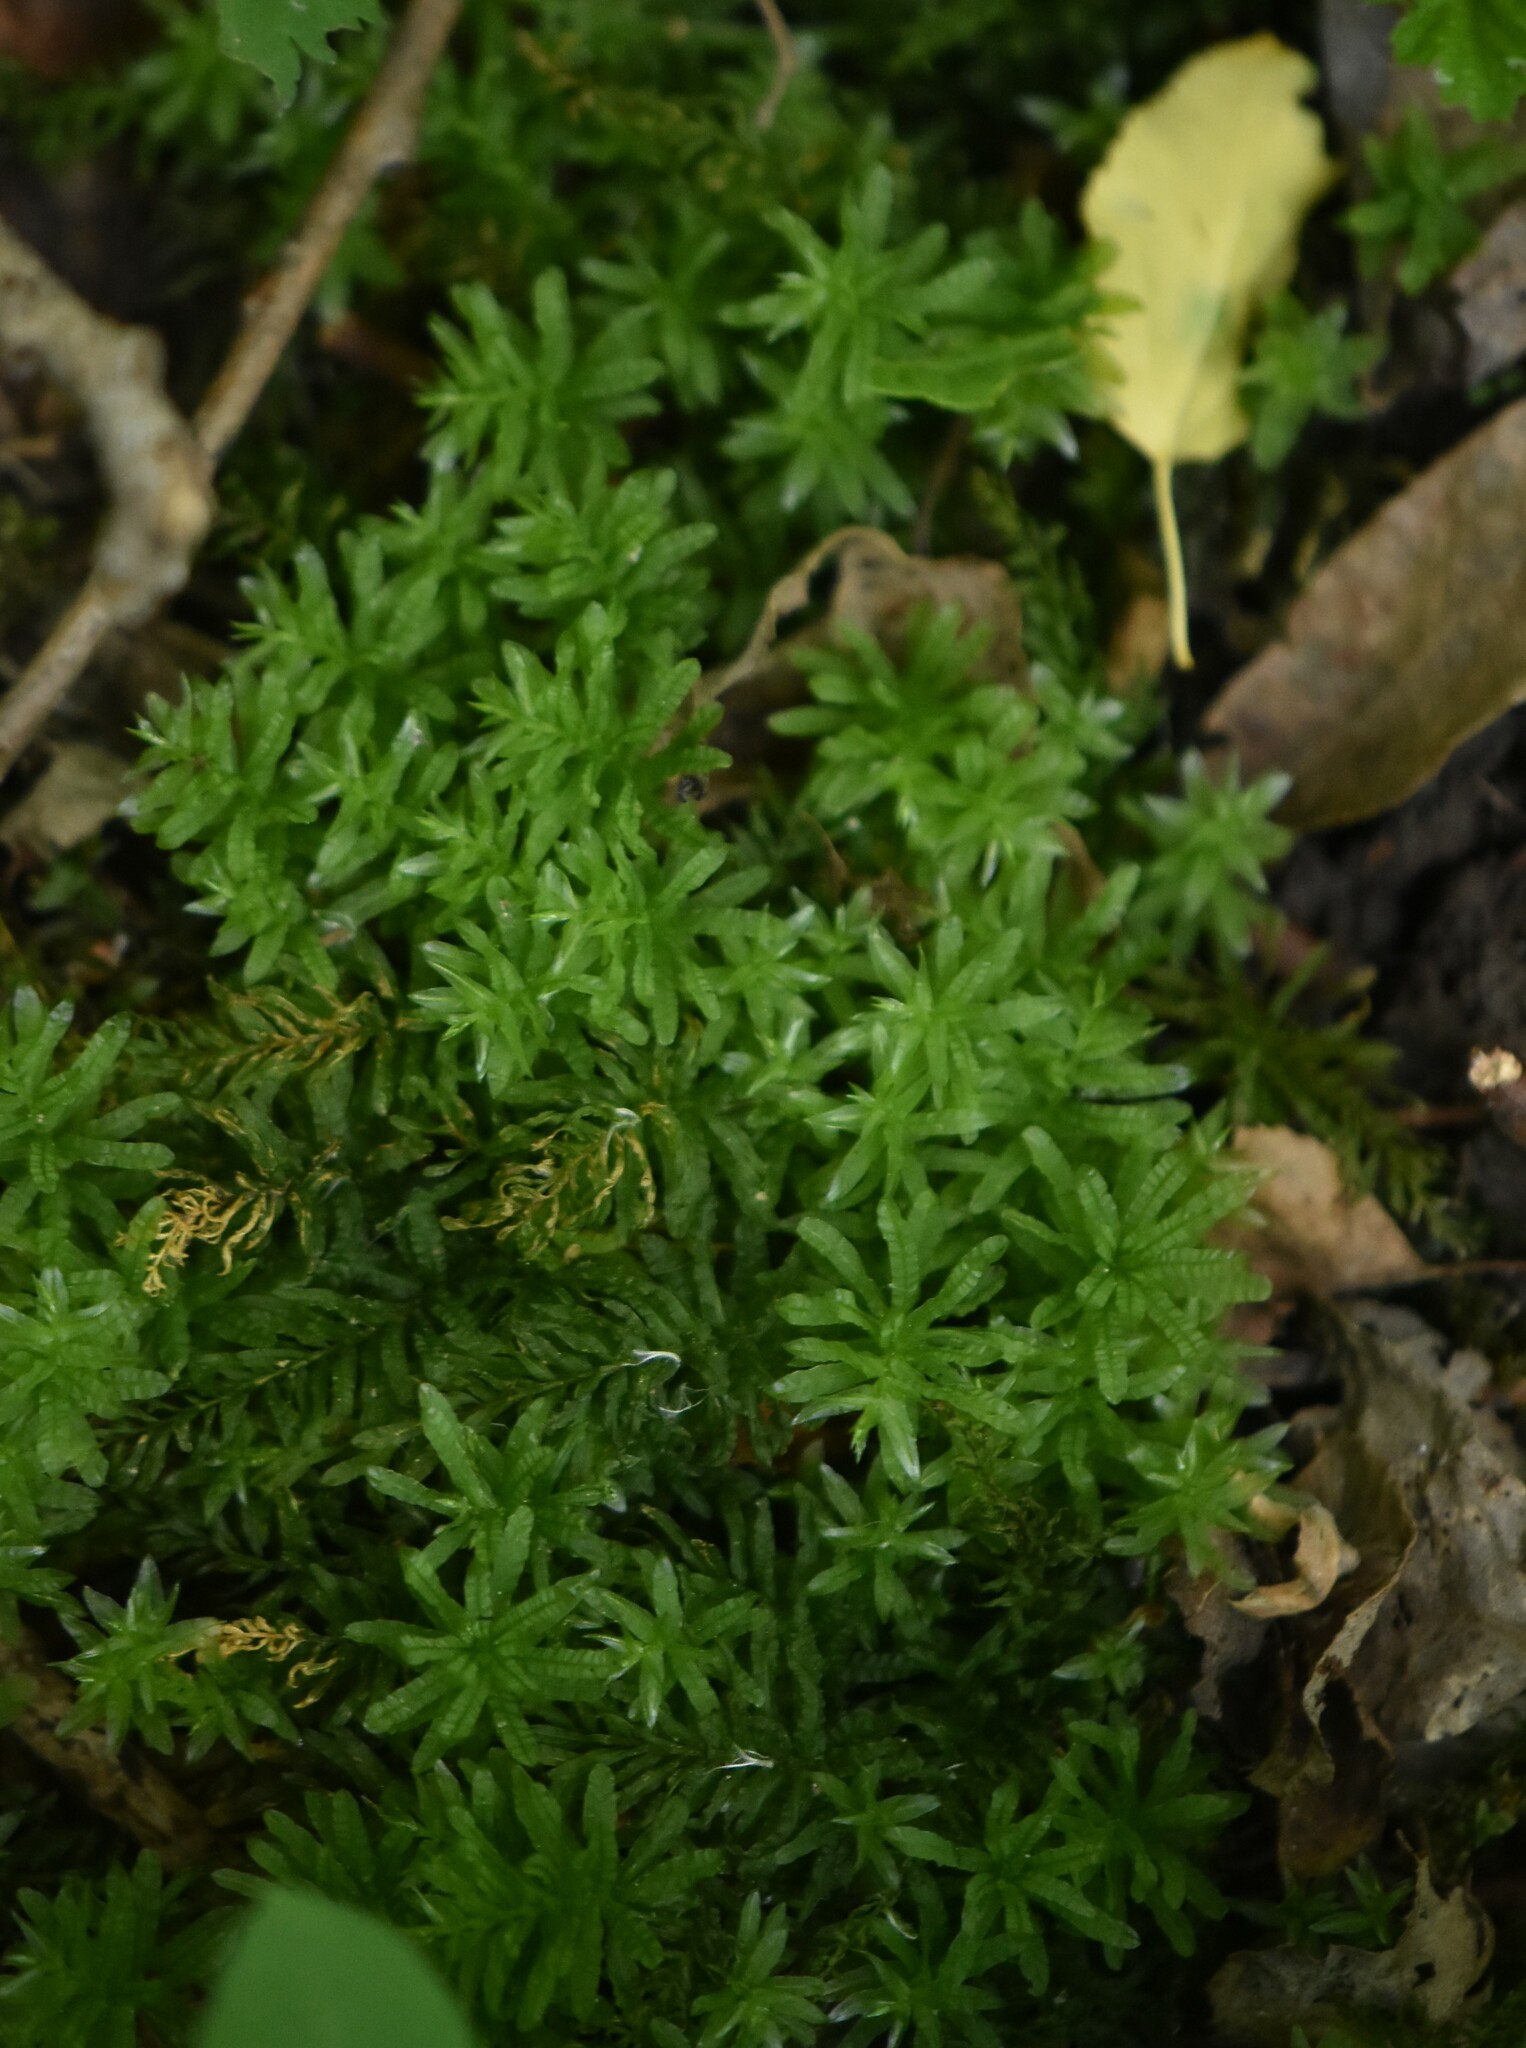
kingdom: Plantae
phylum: Bryophyta
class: Bryopsida
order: Bryales
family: Mniaceae
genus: Plagiomnium
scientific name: Plagiomnium undulatum
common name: Hart's-tongue thyme-moss
